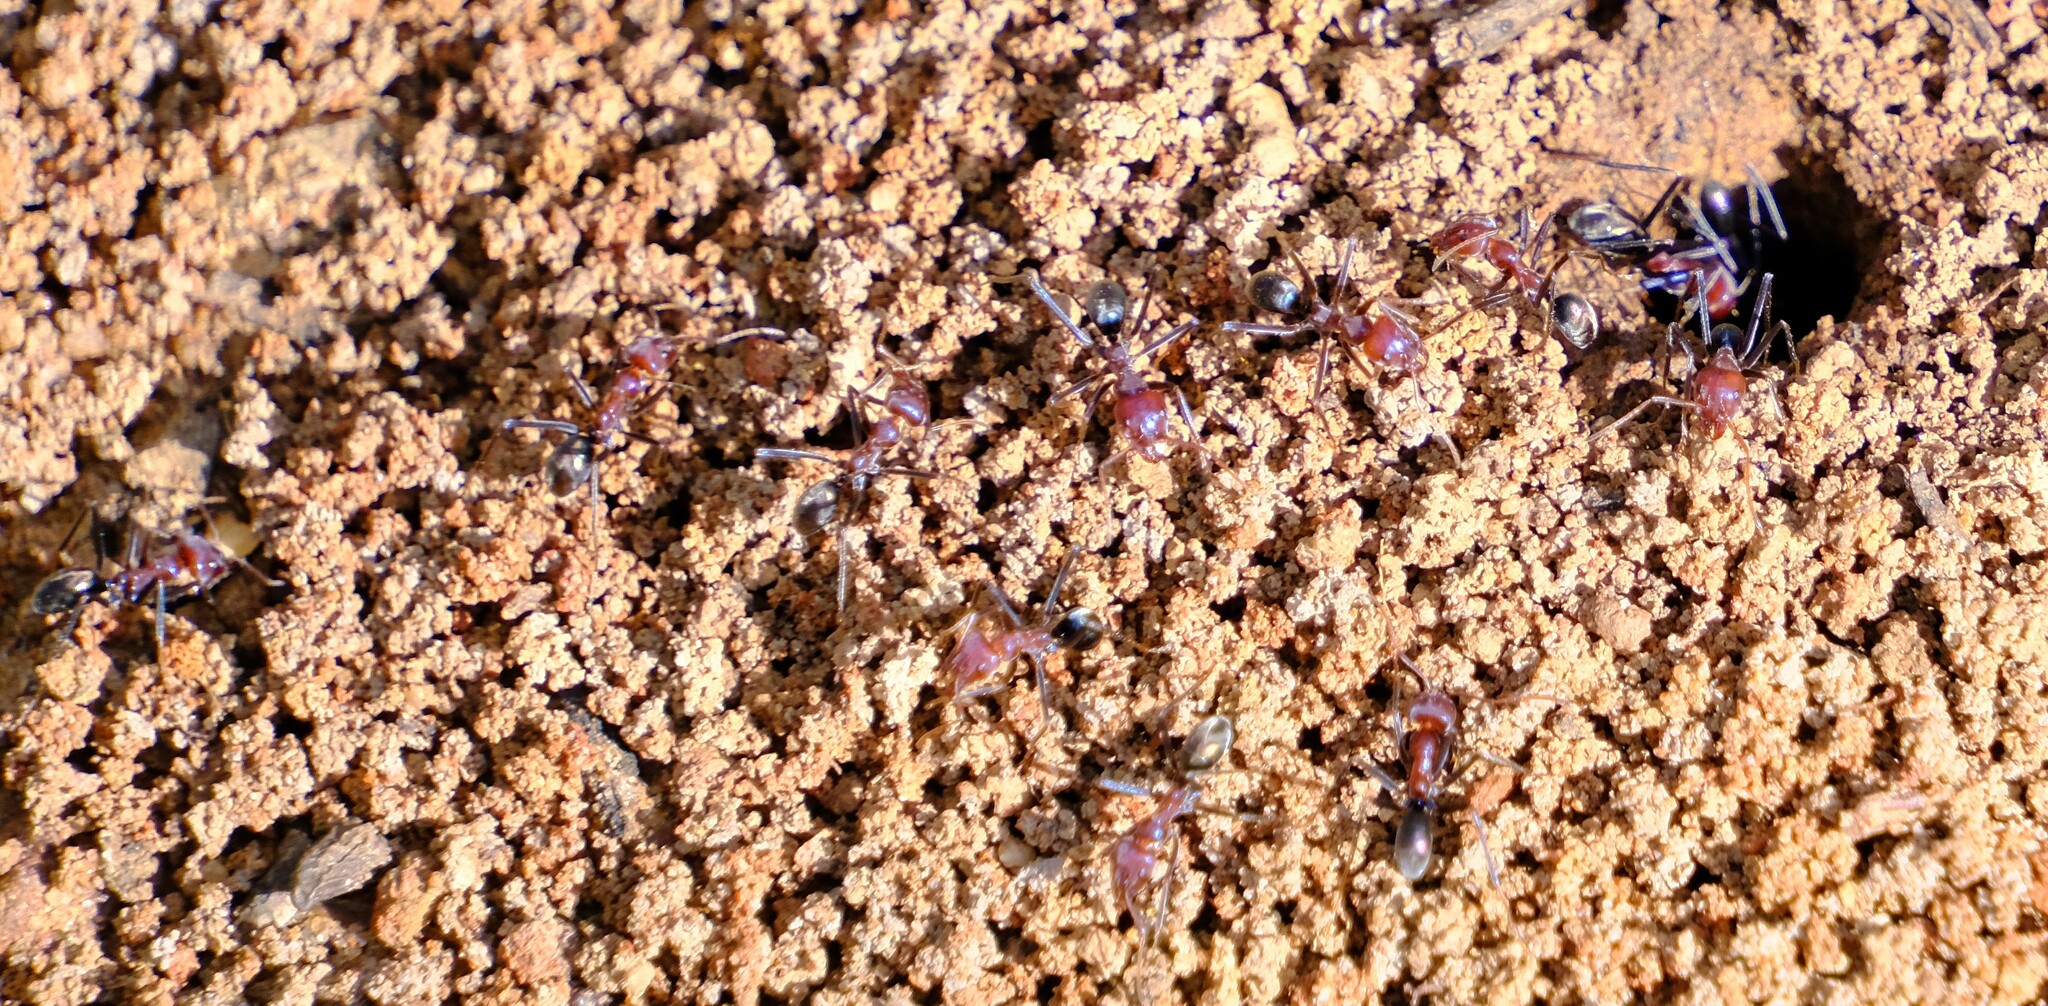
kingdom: Animalia
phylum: Arthropoda
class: Insecta
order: Hymenoptera
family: Formicidae
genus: Iridomyrmex
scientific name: Iridomyrmex purpureus
